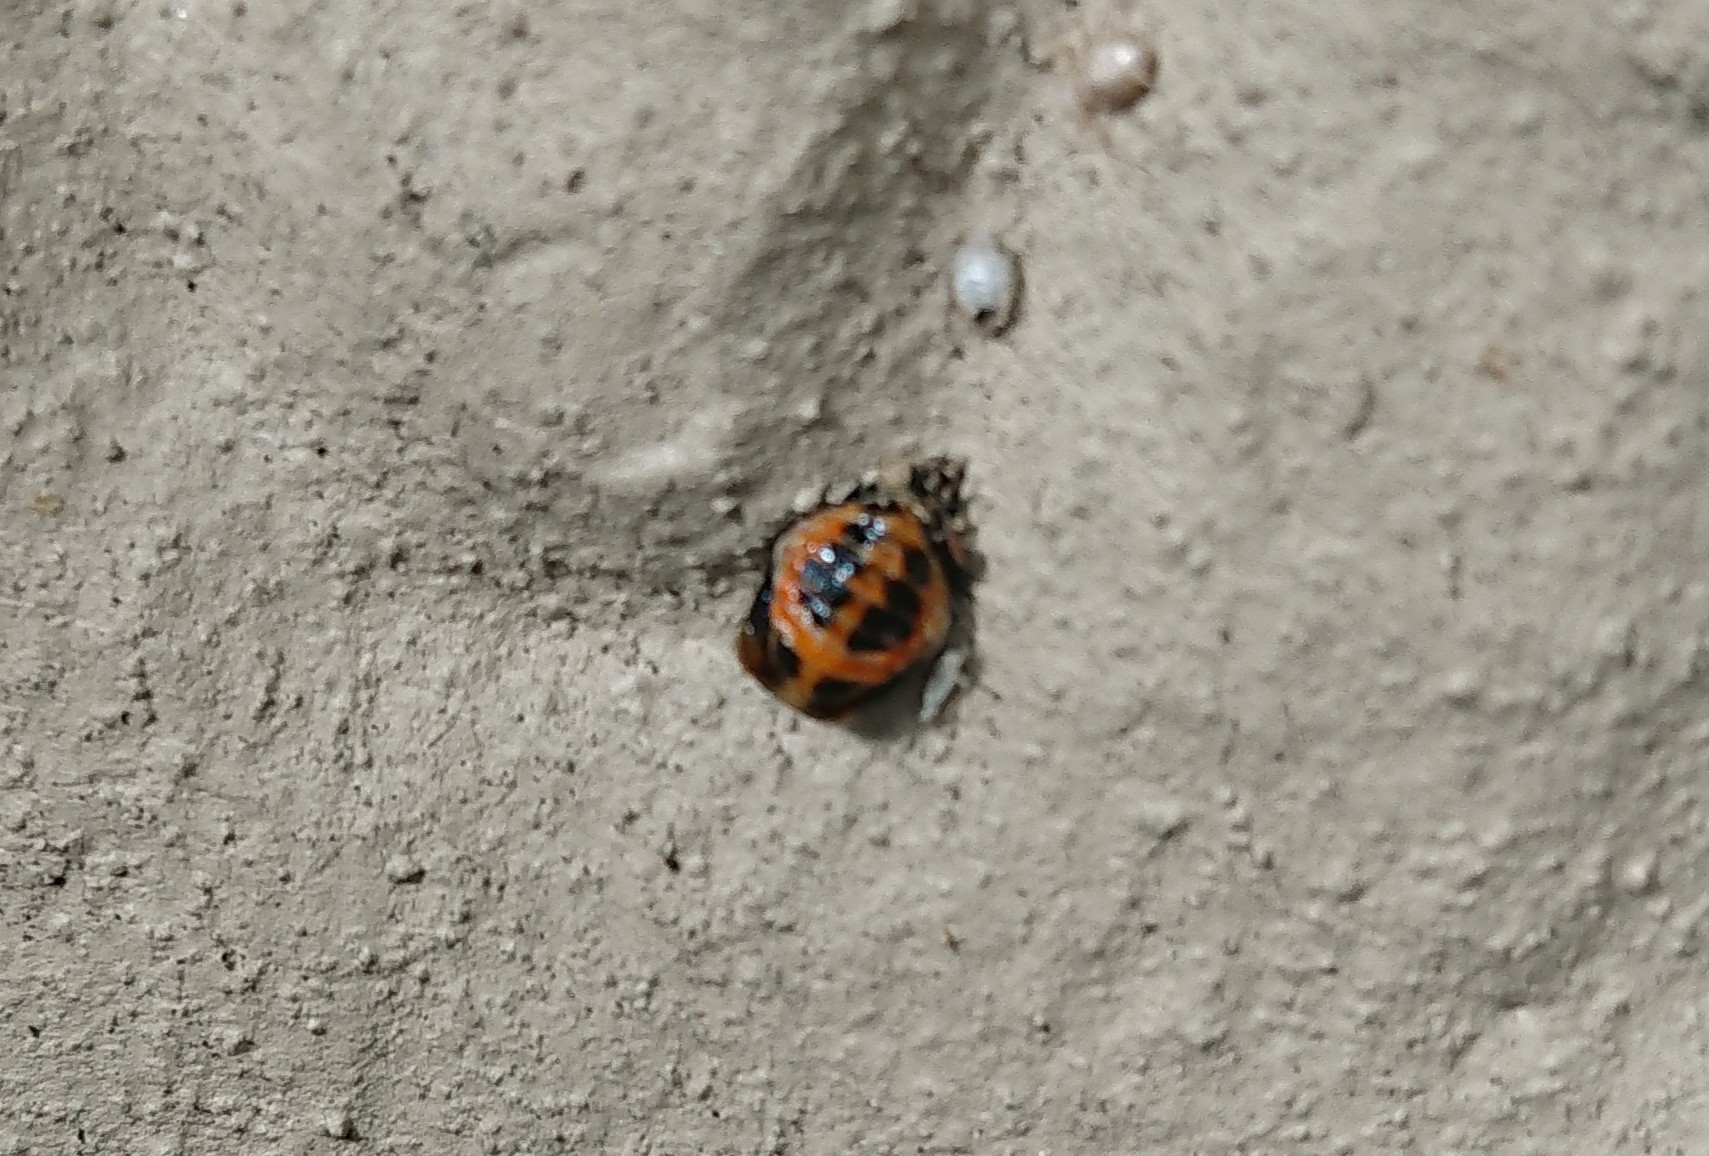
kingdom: Animalia
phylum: Arthropoda
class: Insecta
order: Coleoptera
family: Coccinellidae
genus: Harmonia
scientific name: Harmonia axyridis
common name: Harlequin ladybird
